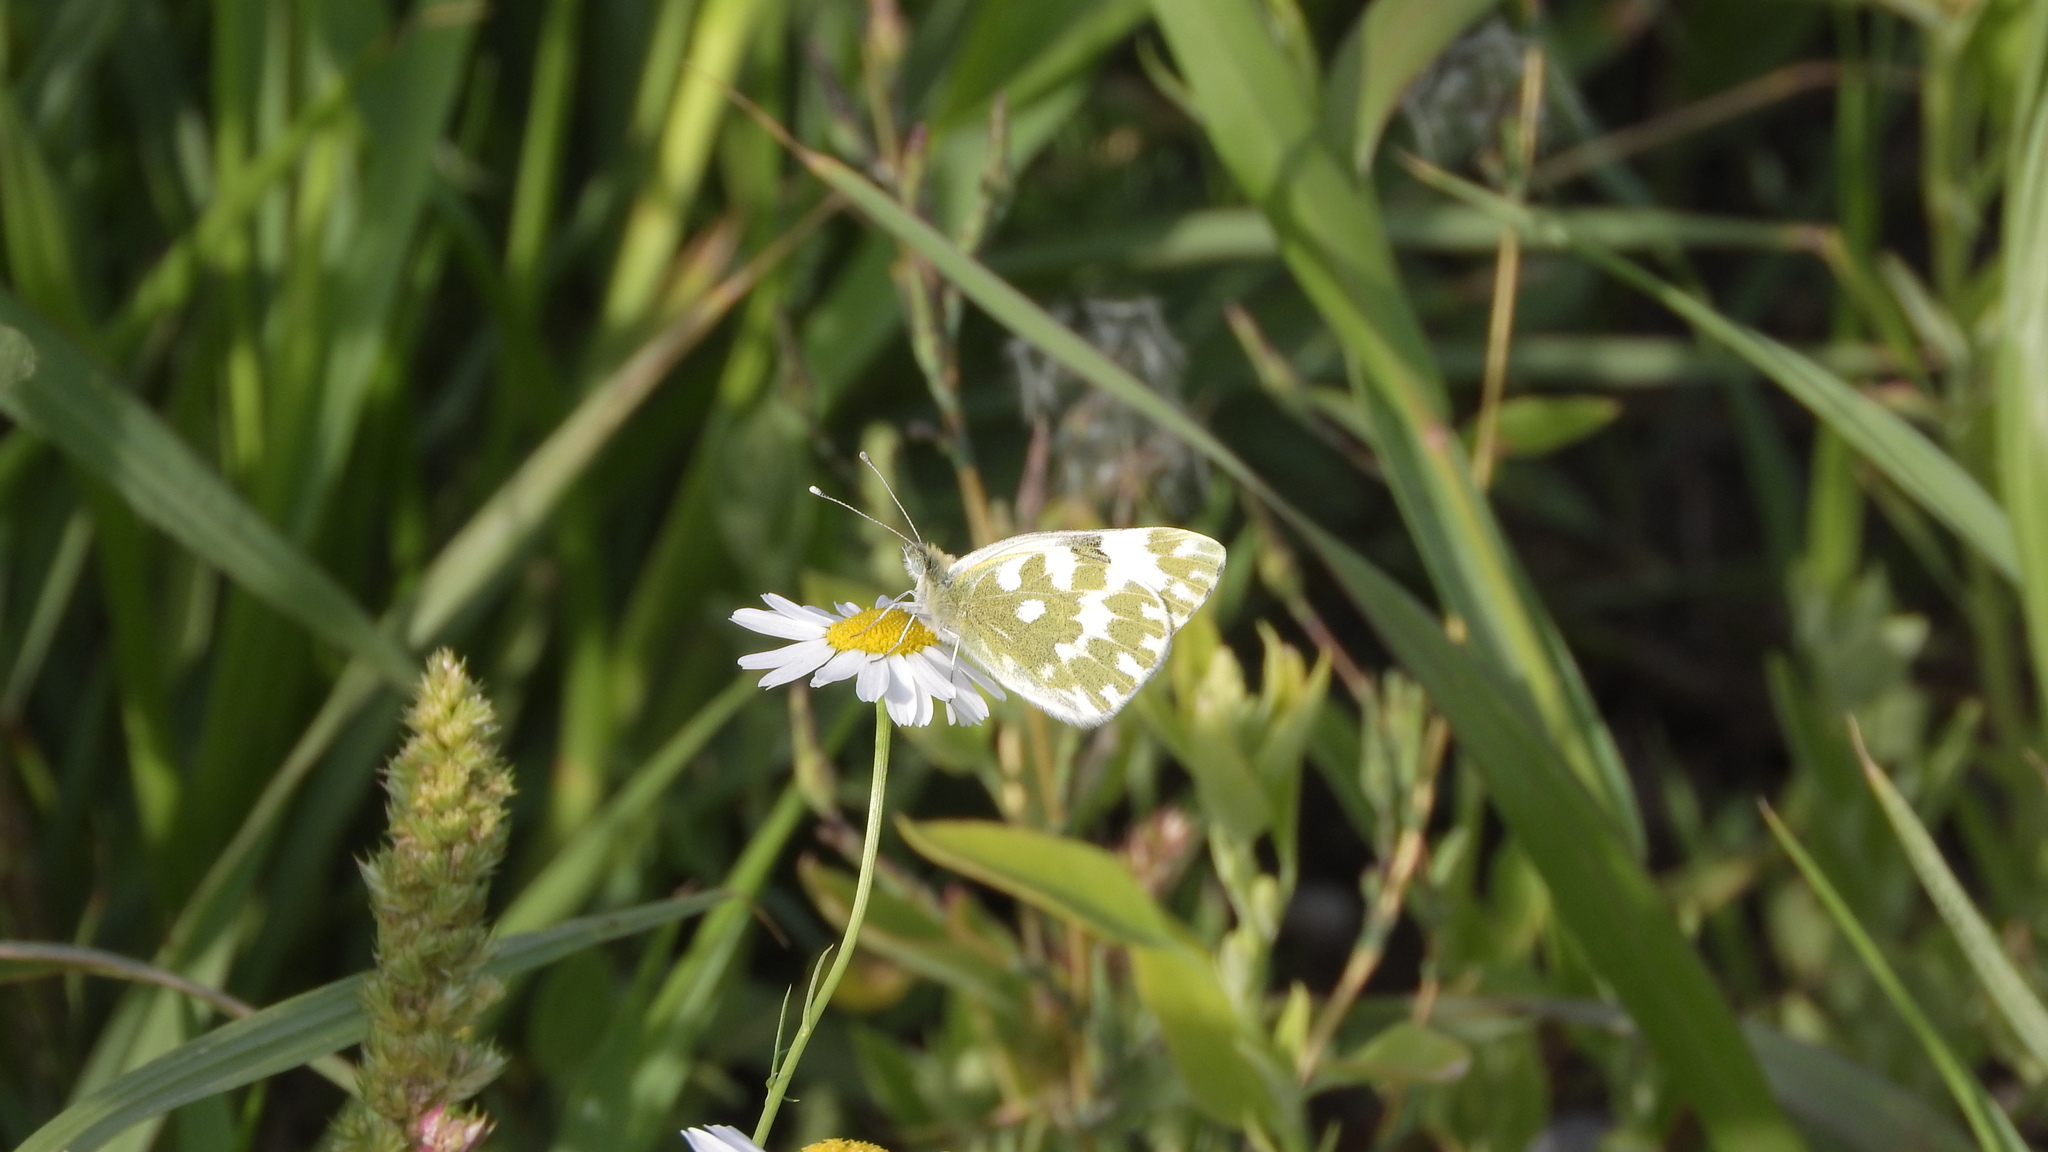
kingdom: Animalia
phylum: Arthropoda
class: Insecta
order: Lepidoptera
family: Pieridae
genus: Pontia
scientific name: Pontia edusa
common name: Eastern bath white
